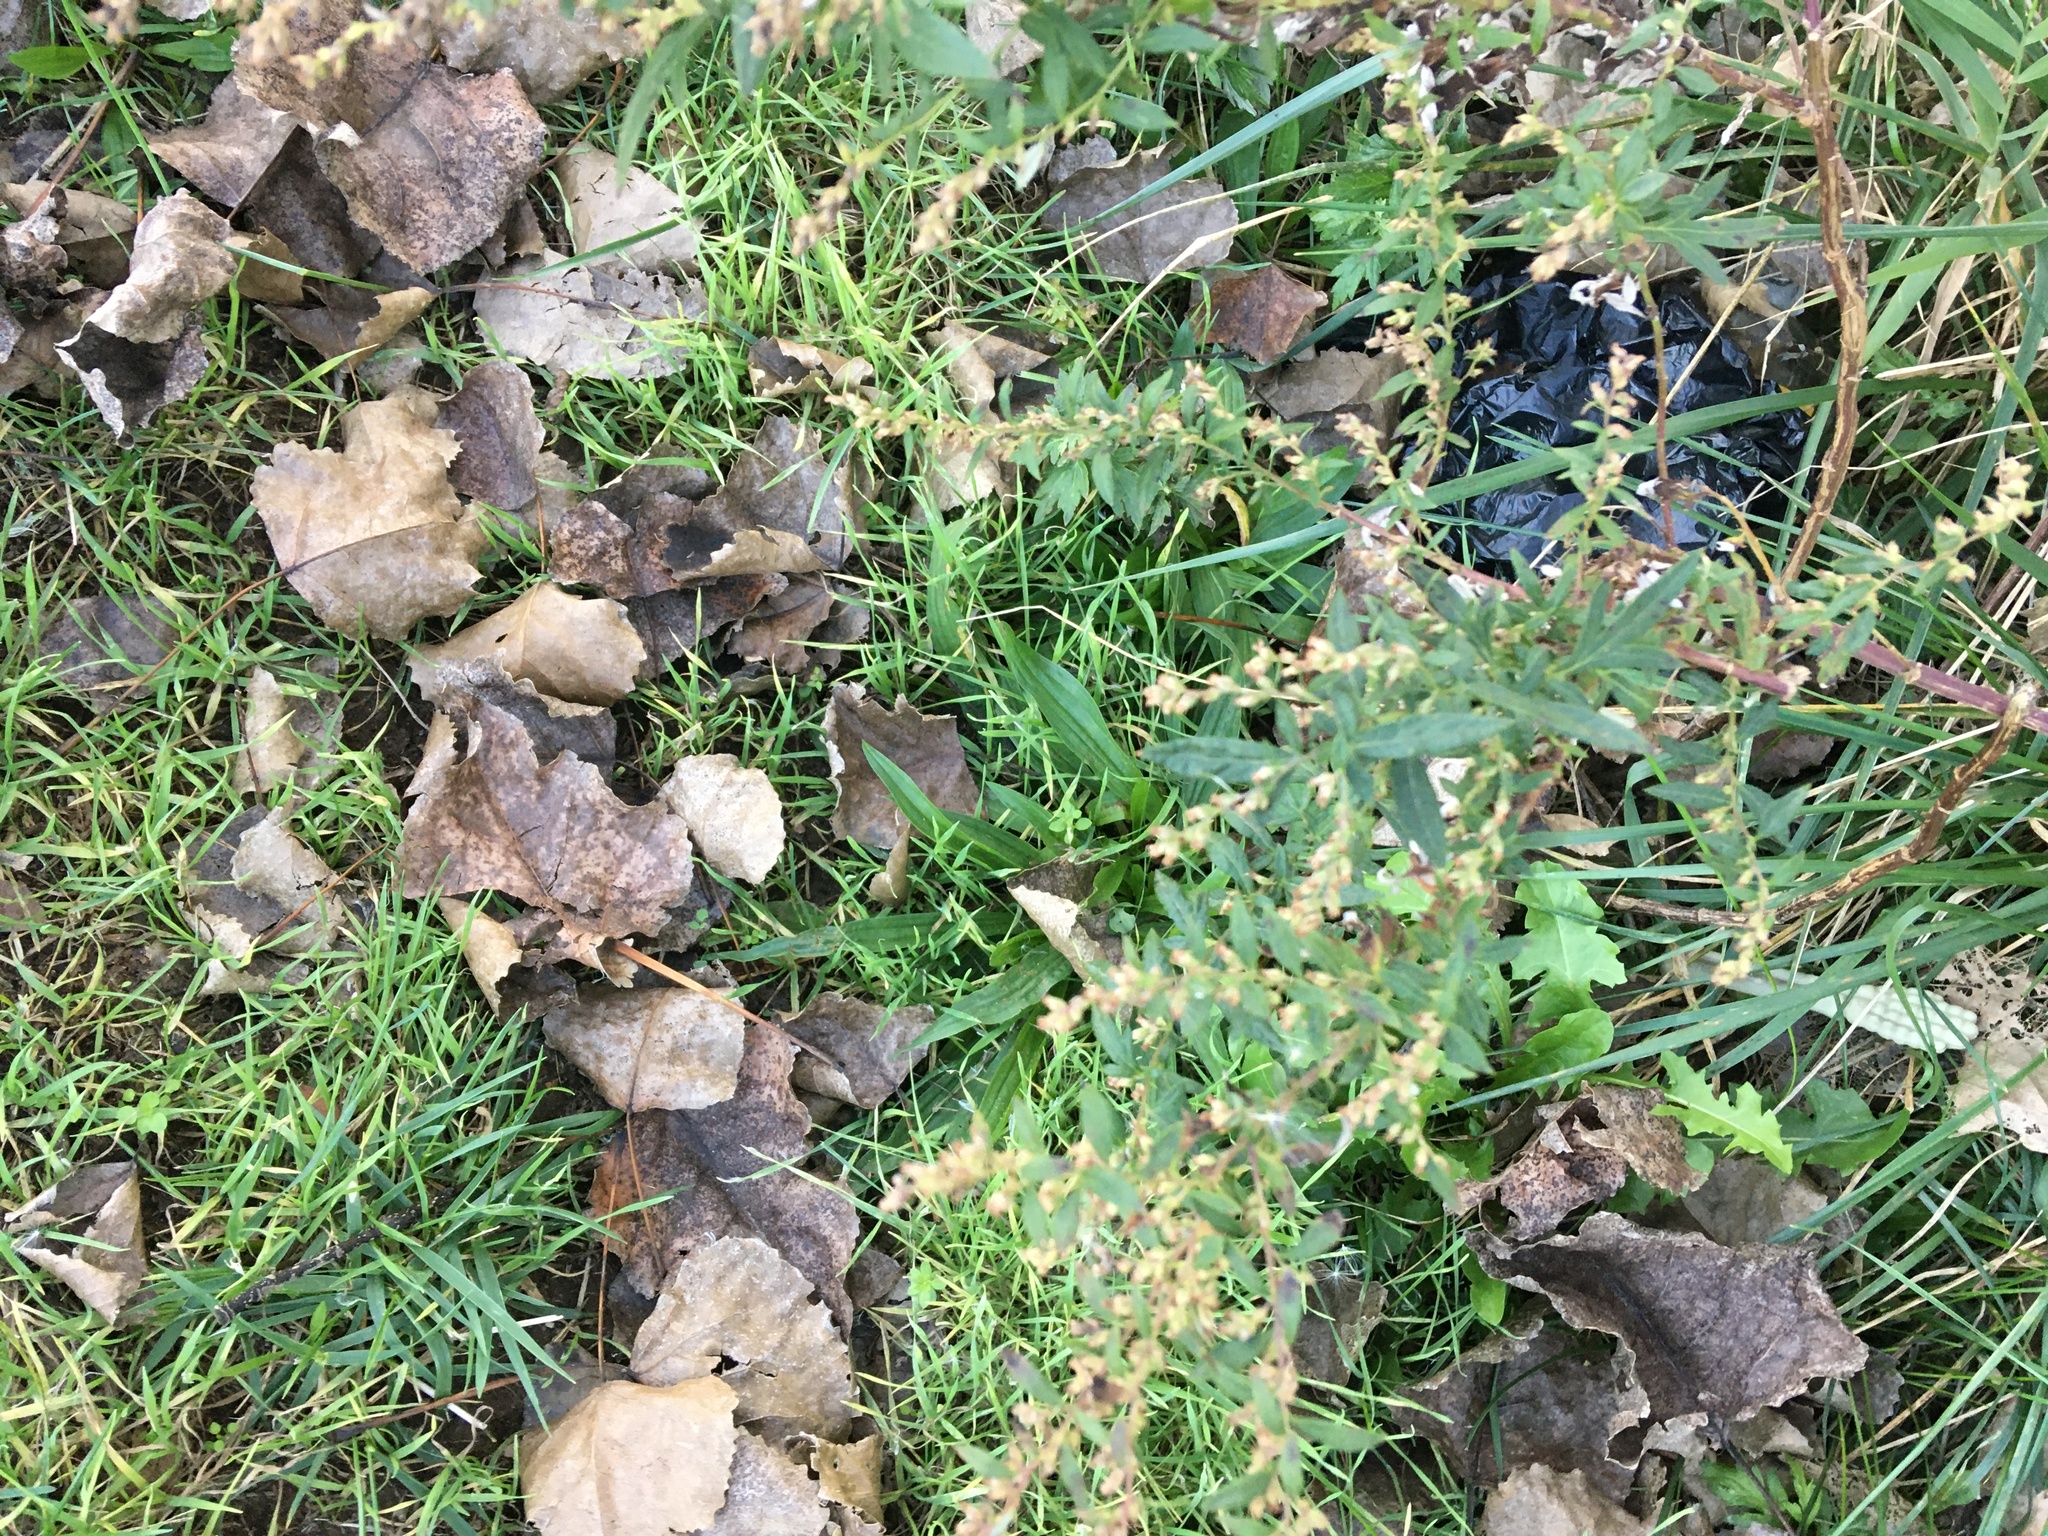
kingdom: Plantae
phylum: Tracheophyta
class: Magnoliopsida
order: Asterales
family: Asteraceae
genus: Artemisia
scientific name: Artemisia vulgaris
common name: Mugwort
